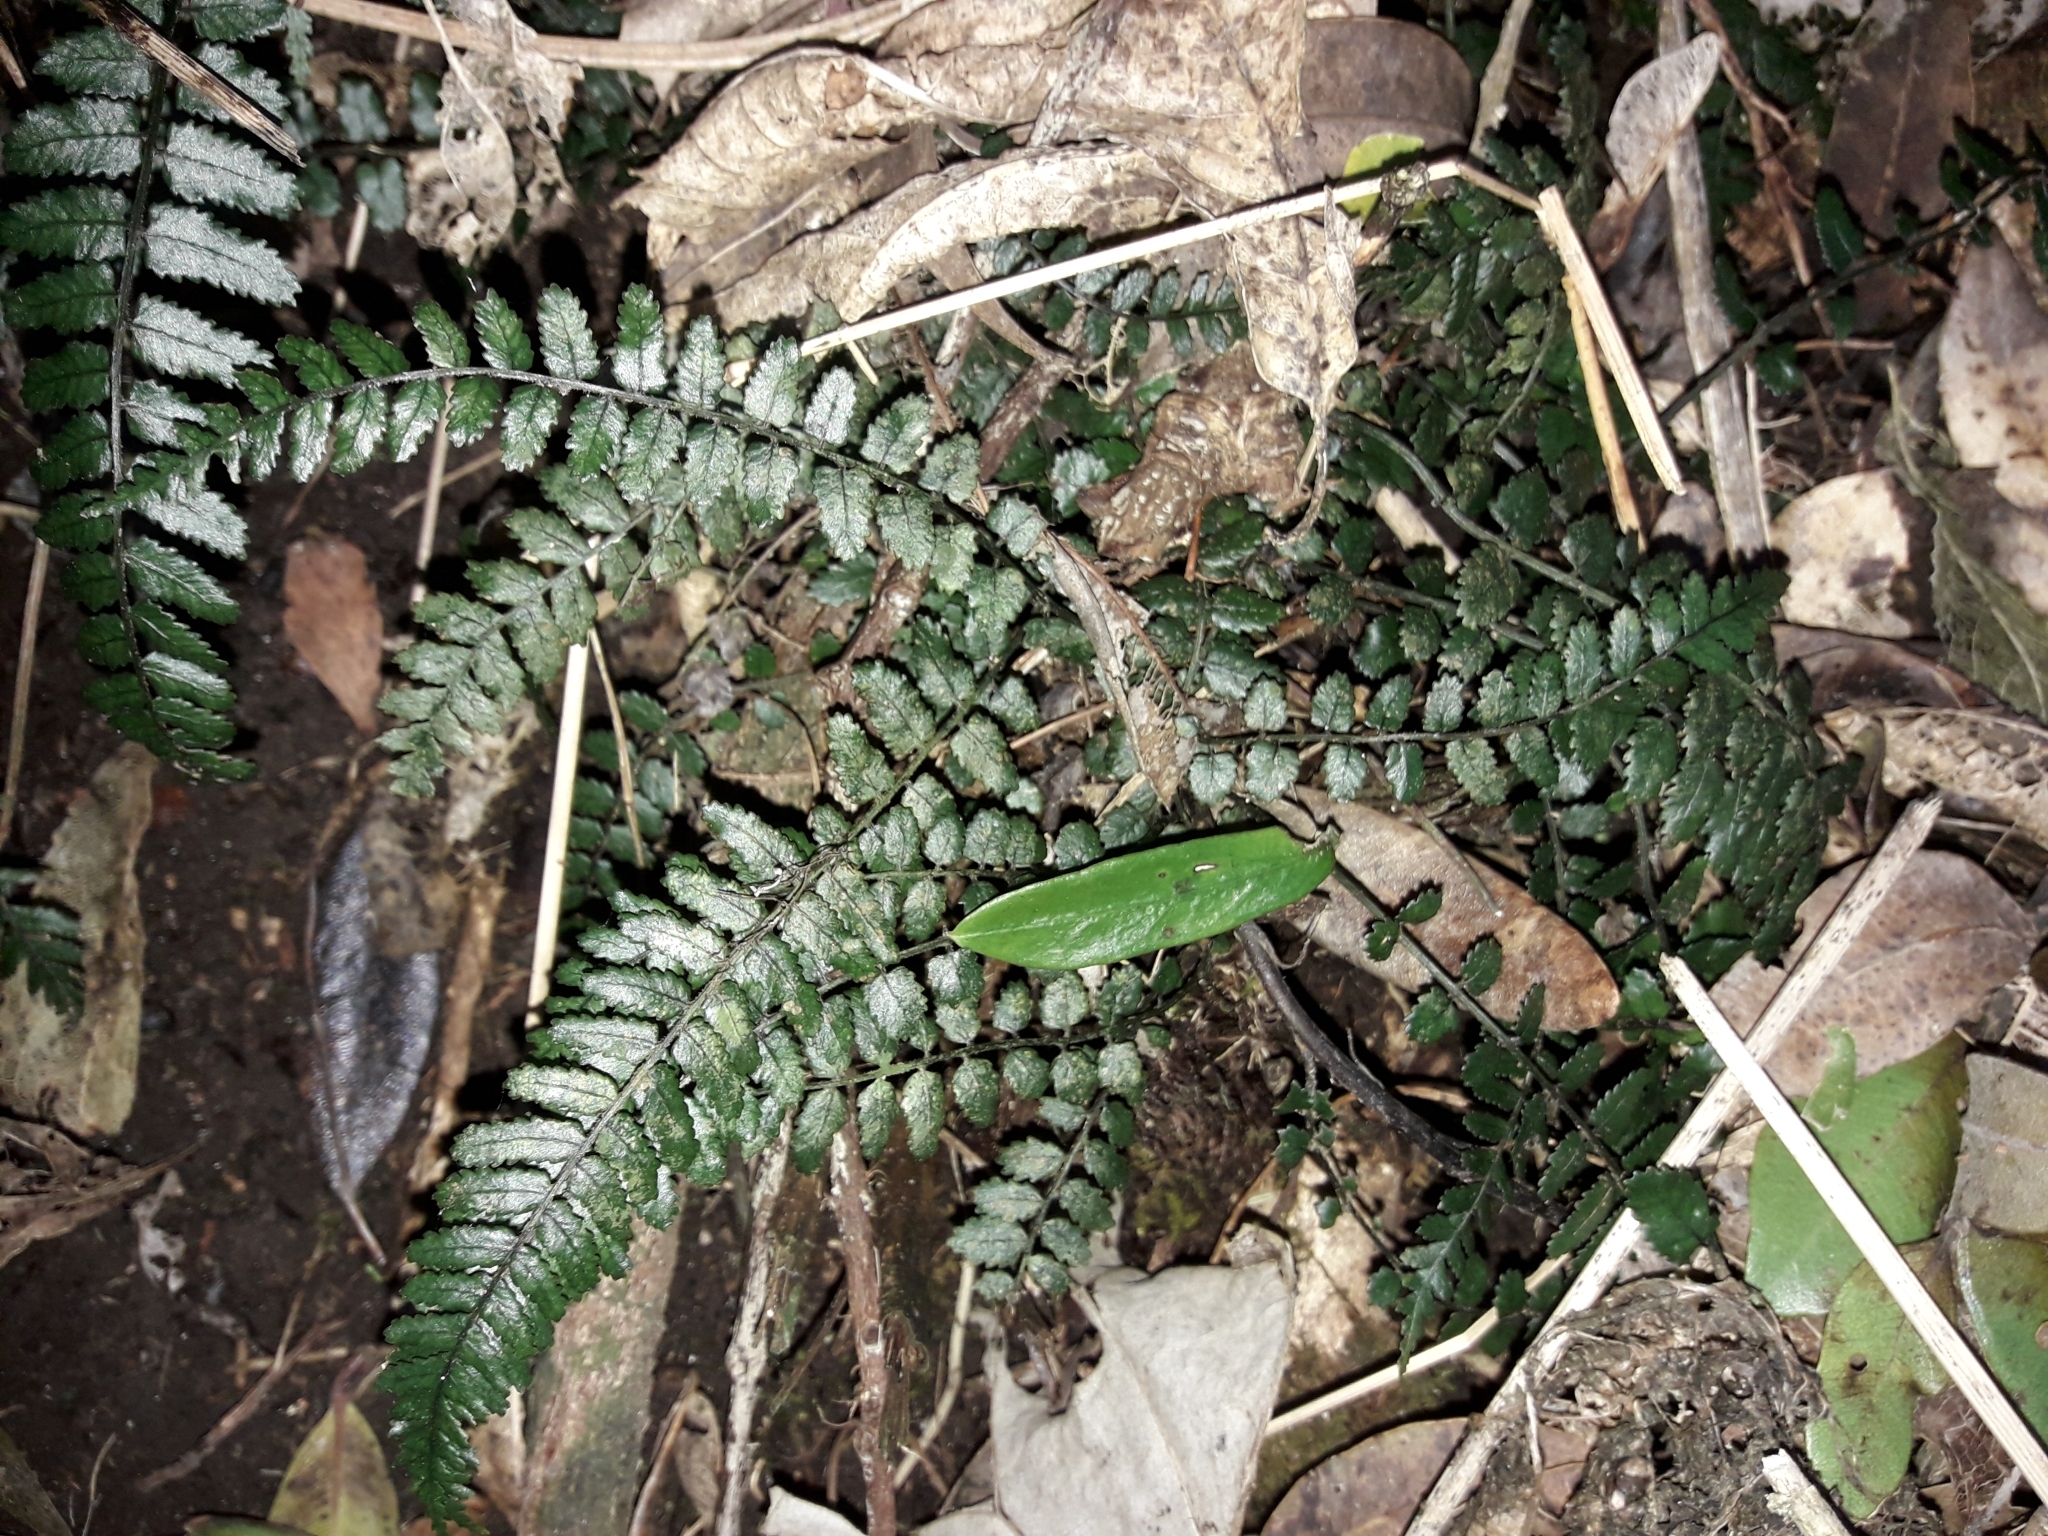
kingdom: Plantae
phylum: Tracheophyta
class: Polypodiopsida
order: Polypodiales
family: Blechnaceae
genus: Icarus
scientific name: Icarus filiformis
